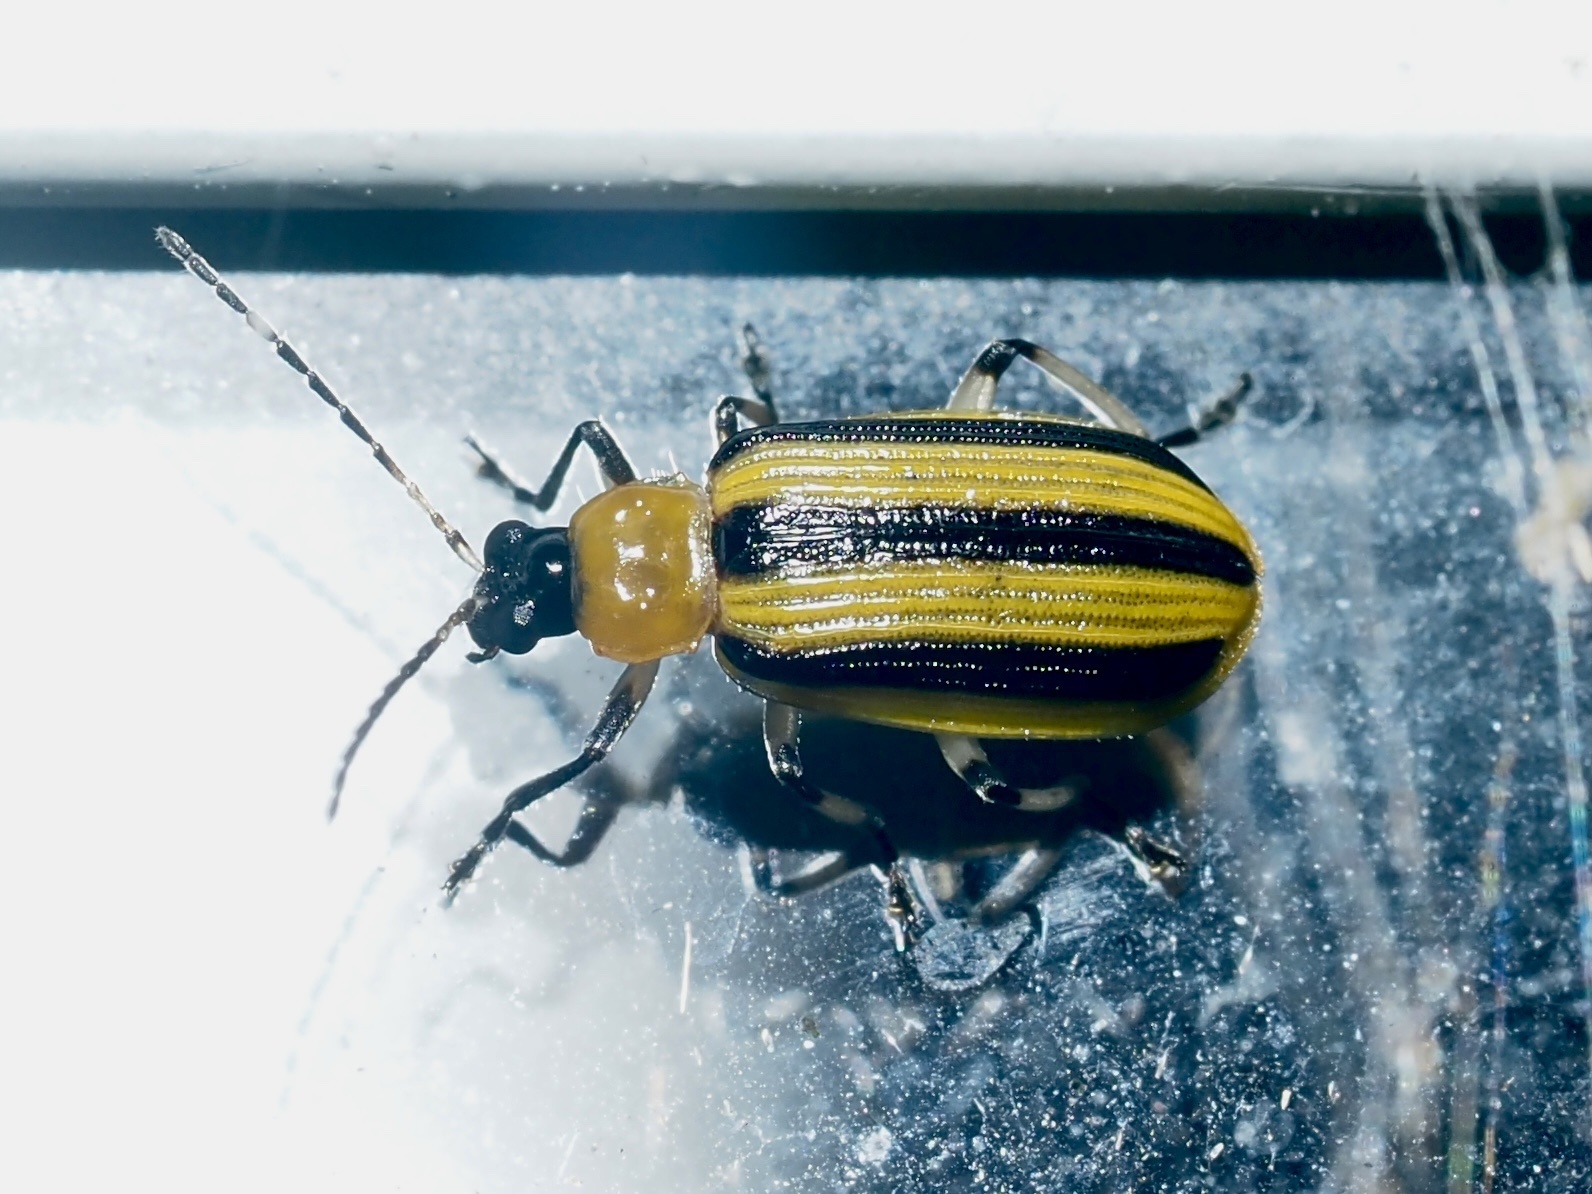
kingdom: Animalia
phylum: Arthropoda
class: Insecta
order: Coleoptera
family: Chrysomelidae
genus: Acalymma
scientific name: Acalymma vittatum
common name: Striped cucumber beetle
